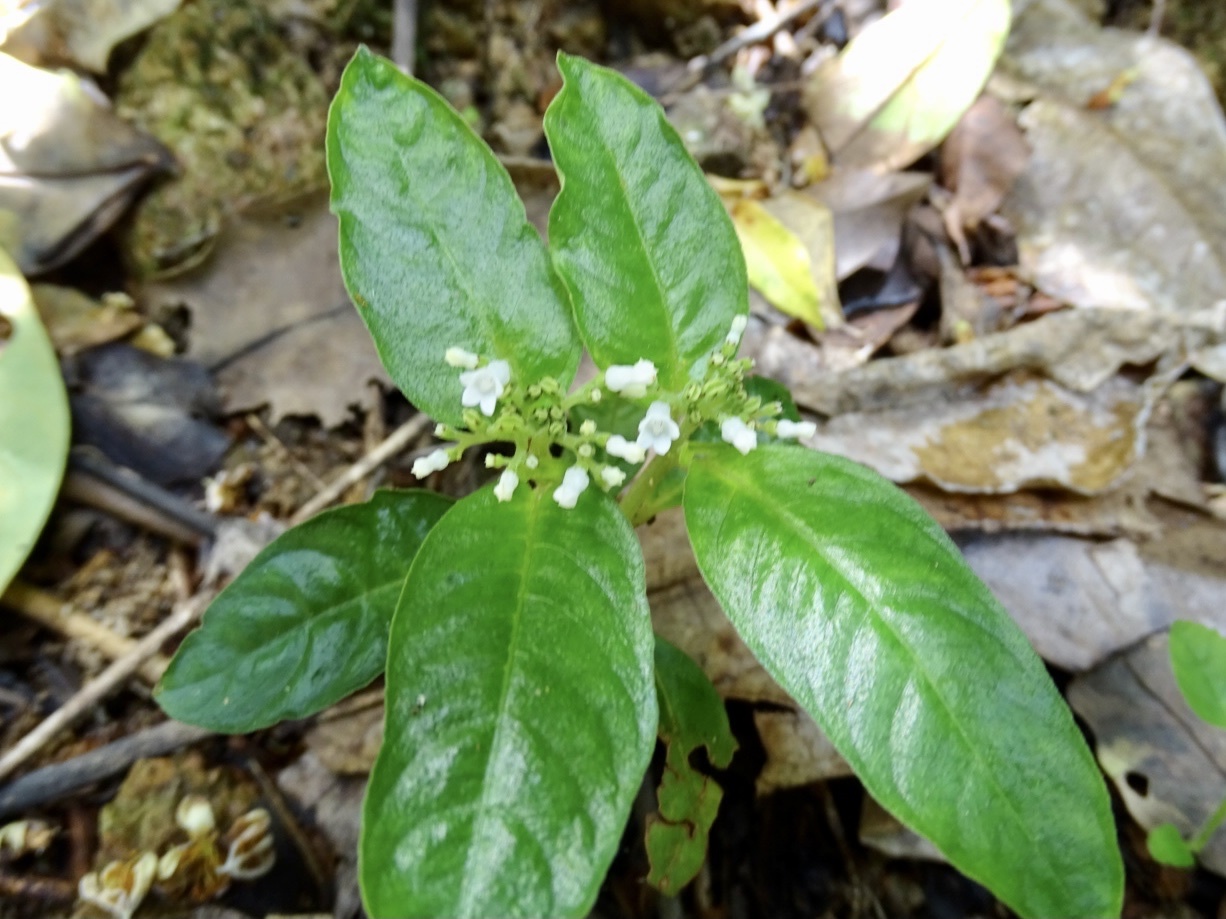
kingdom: Plantae
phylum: Tracheophyta
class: Magnoliopsida
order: Gentianales
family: Rubiaceae
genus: Ophiorrhiza
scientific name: Ophiorrhiza pumila
